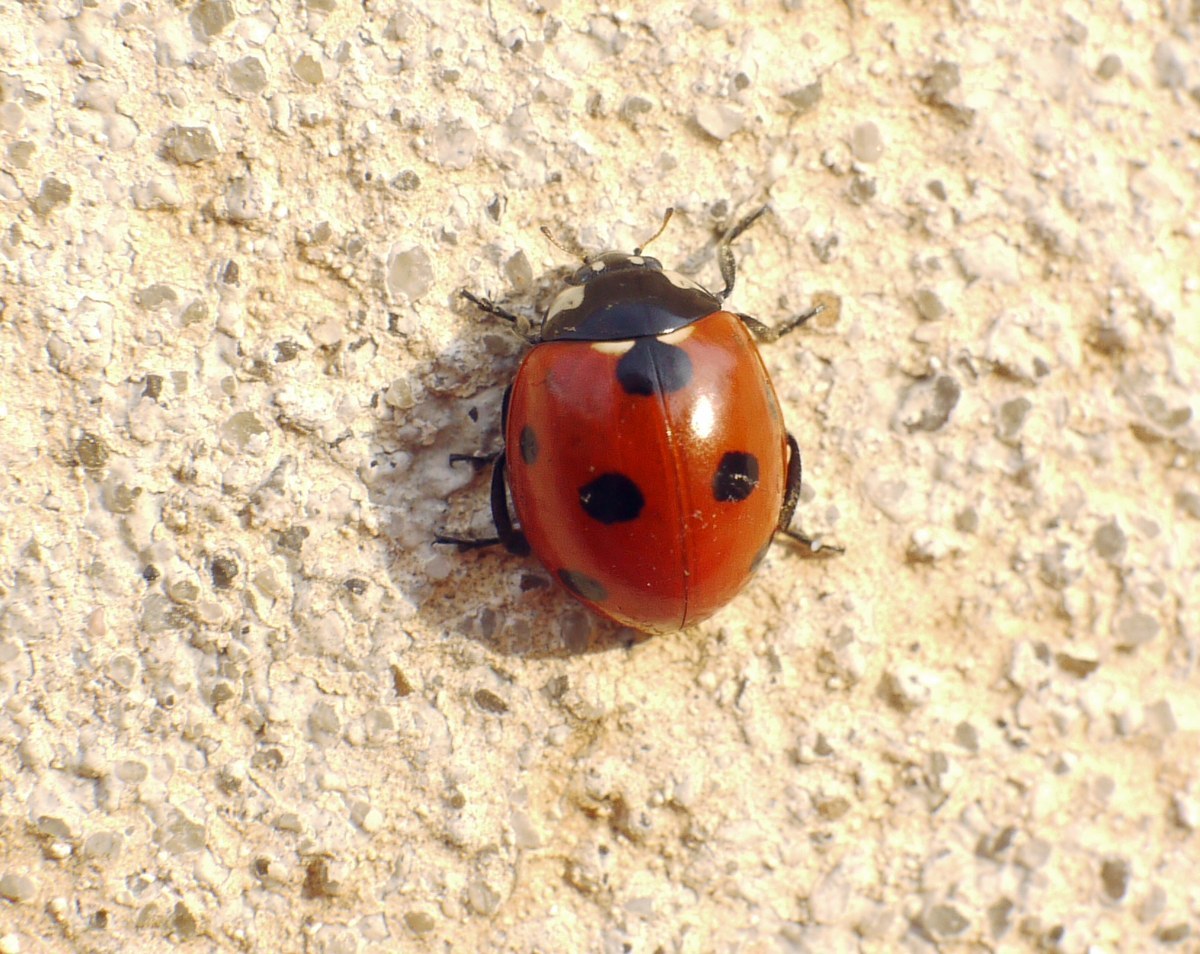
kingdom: Animalia
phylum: Arthropoda
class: Insecta
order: Coleoptera
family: Coccinellidae
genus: Coccinella
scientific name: Coccinella septempunctata
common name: Sevenspotted lady beetle
